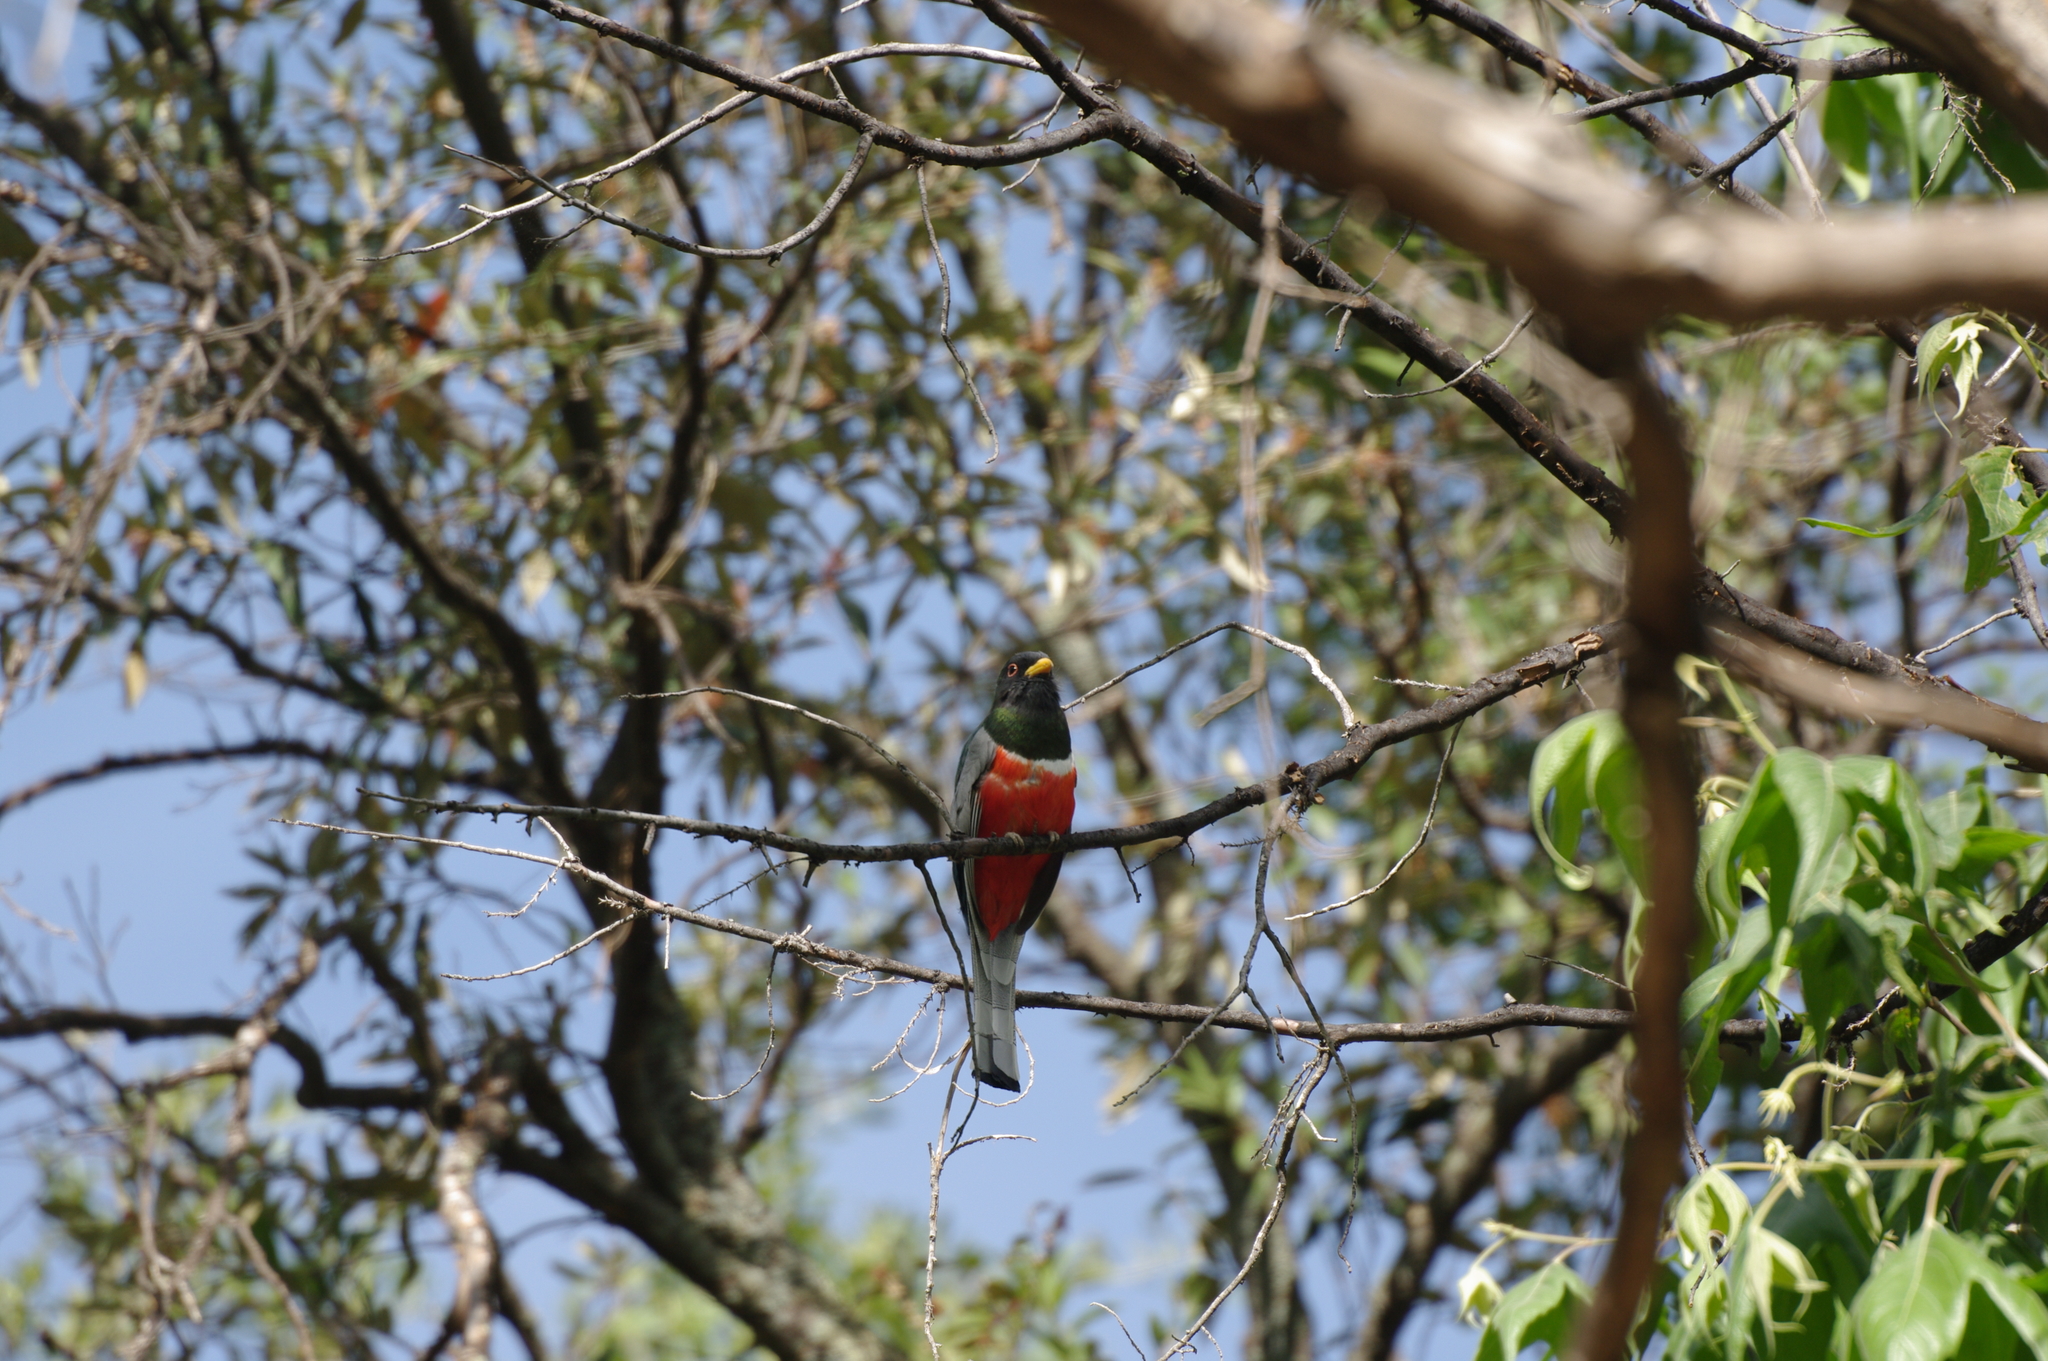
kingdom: Animalia
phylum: Chordata
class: Aves
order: Trogoniformes
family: Trogonidae
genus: Trogon
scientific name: Trogon elegans
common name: Elegant trogon
